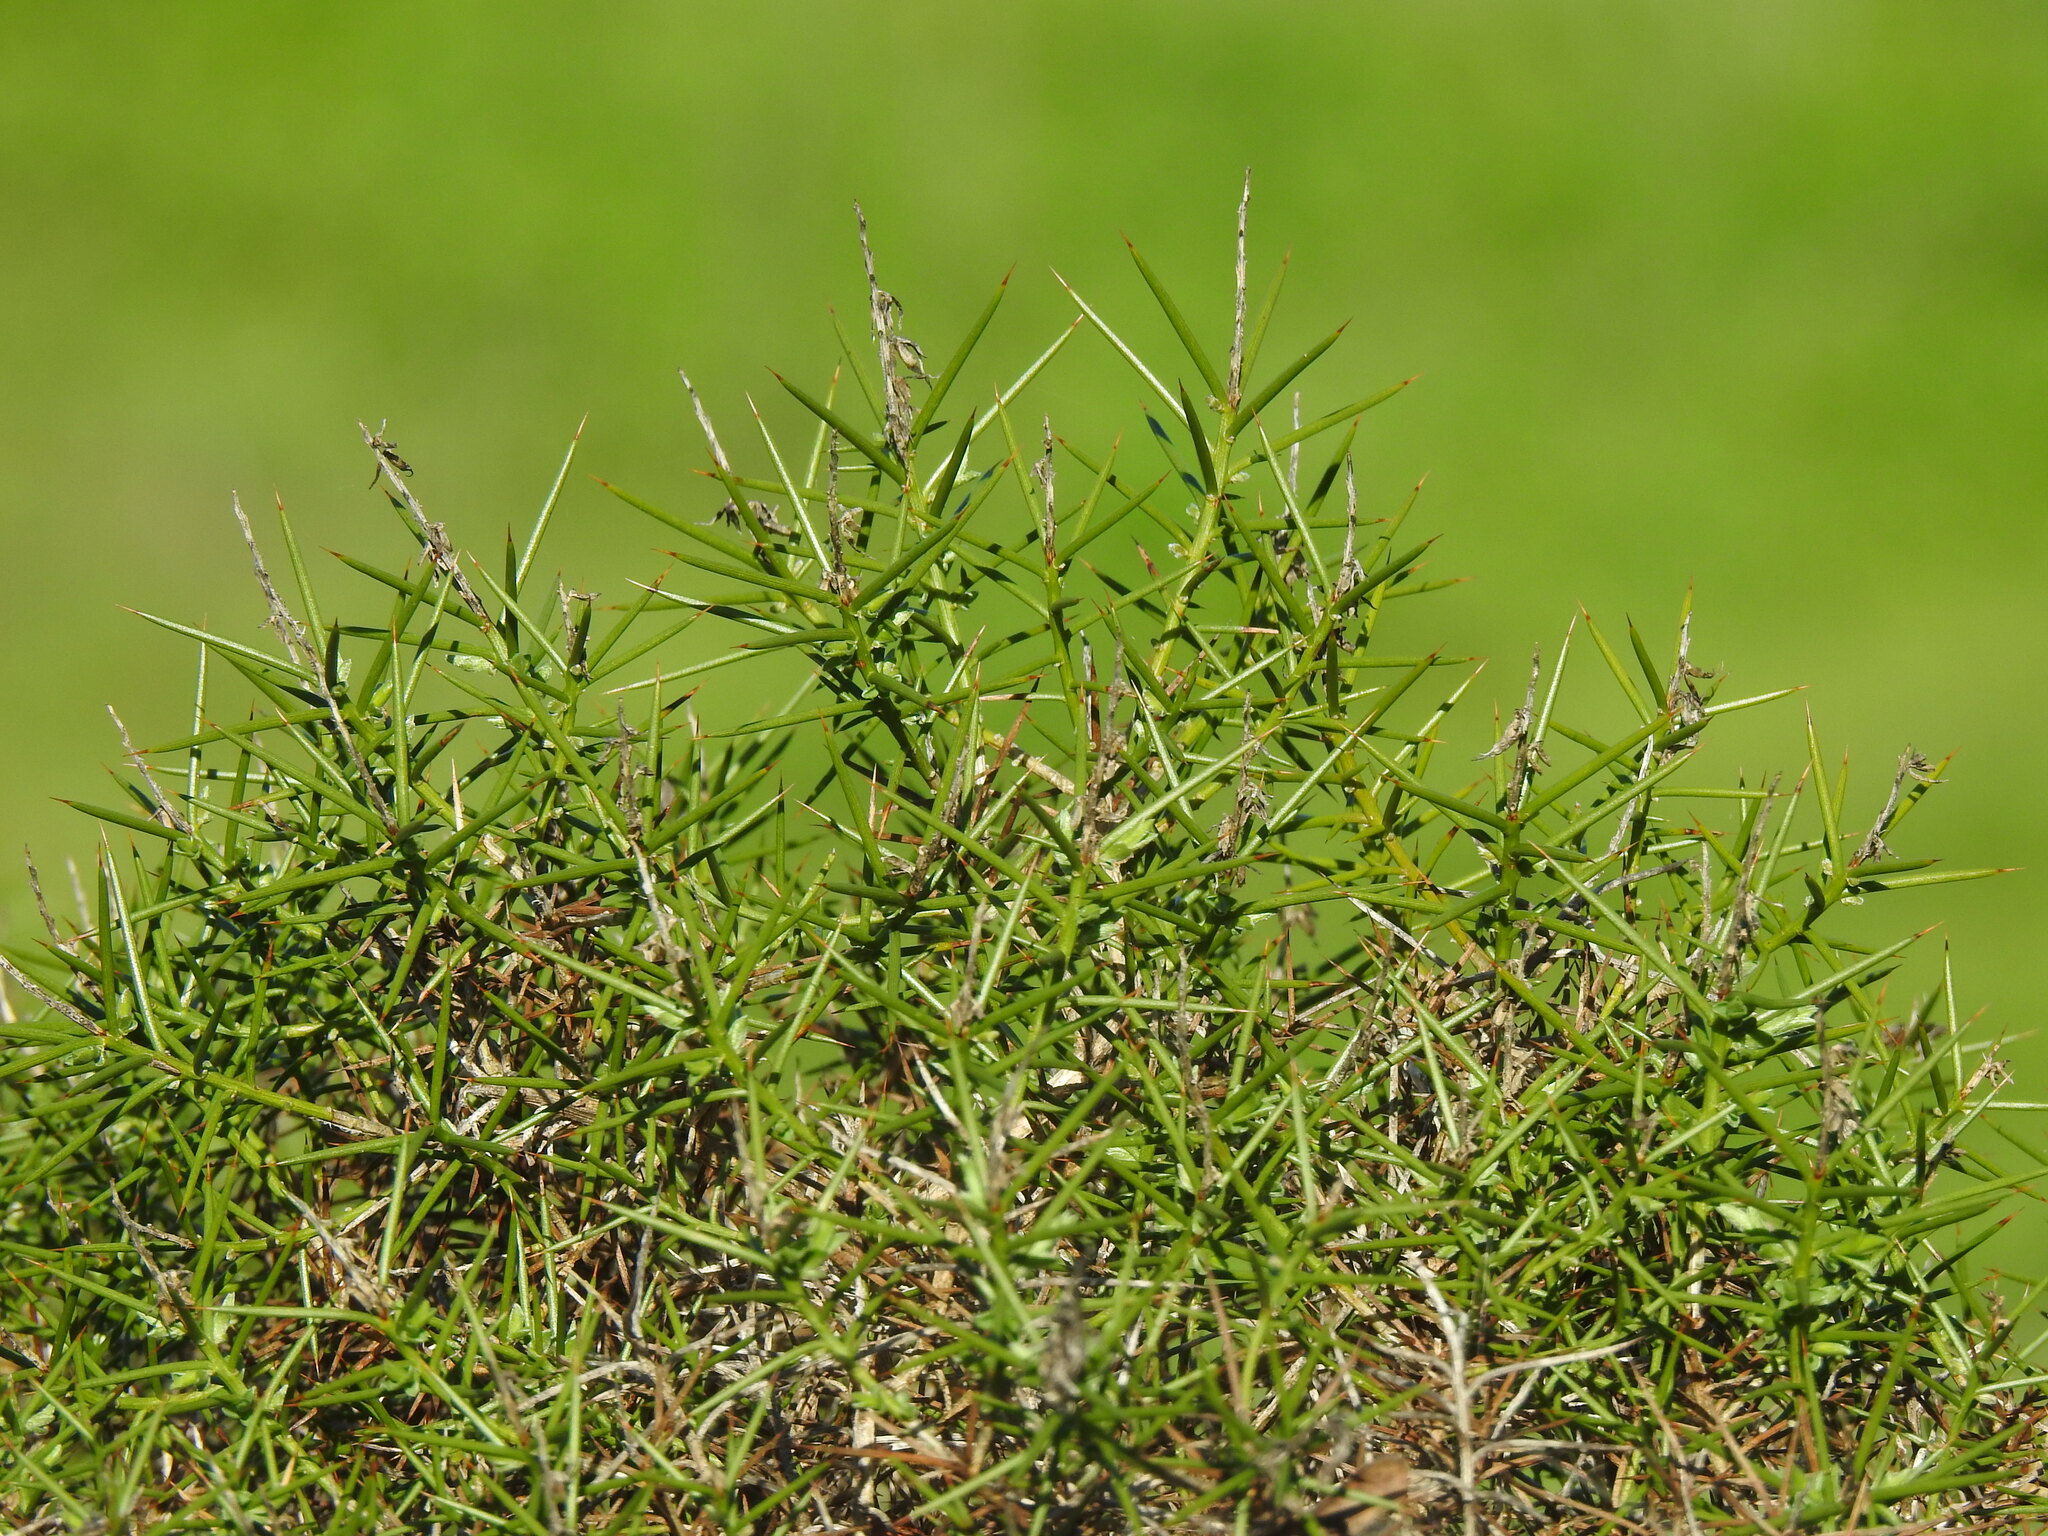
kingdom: Plantae
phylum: Tracheophyta
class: Magnoliopsida
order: Fabales
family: Fabaceae
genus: Genista
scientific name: Genista hirsuta
